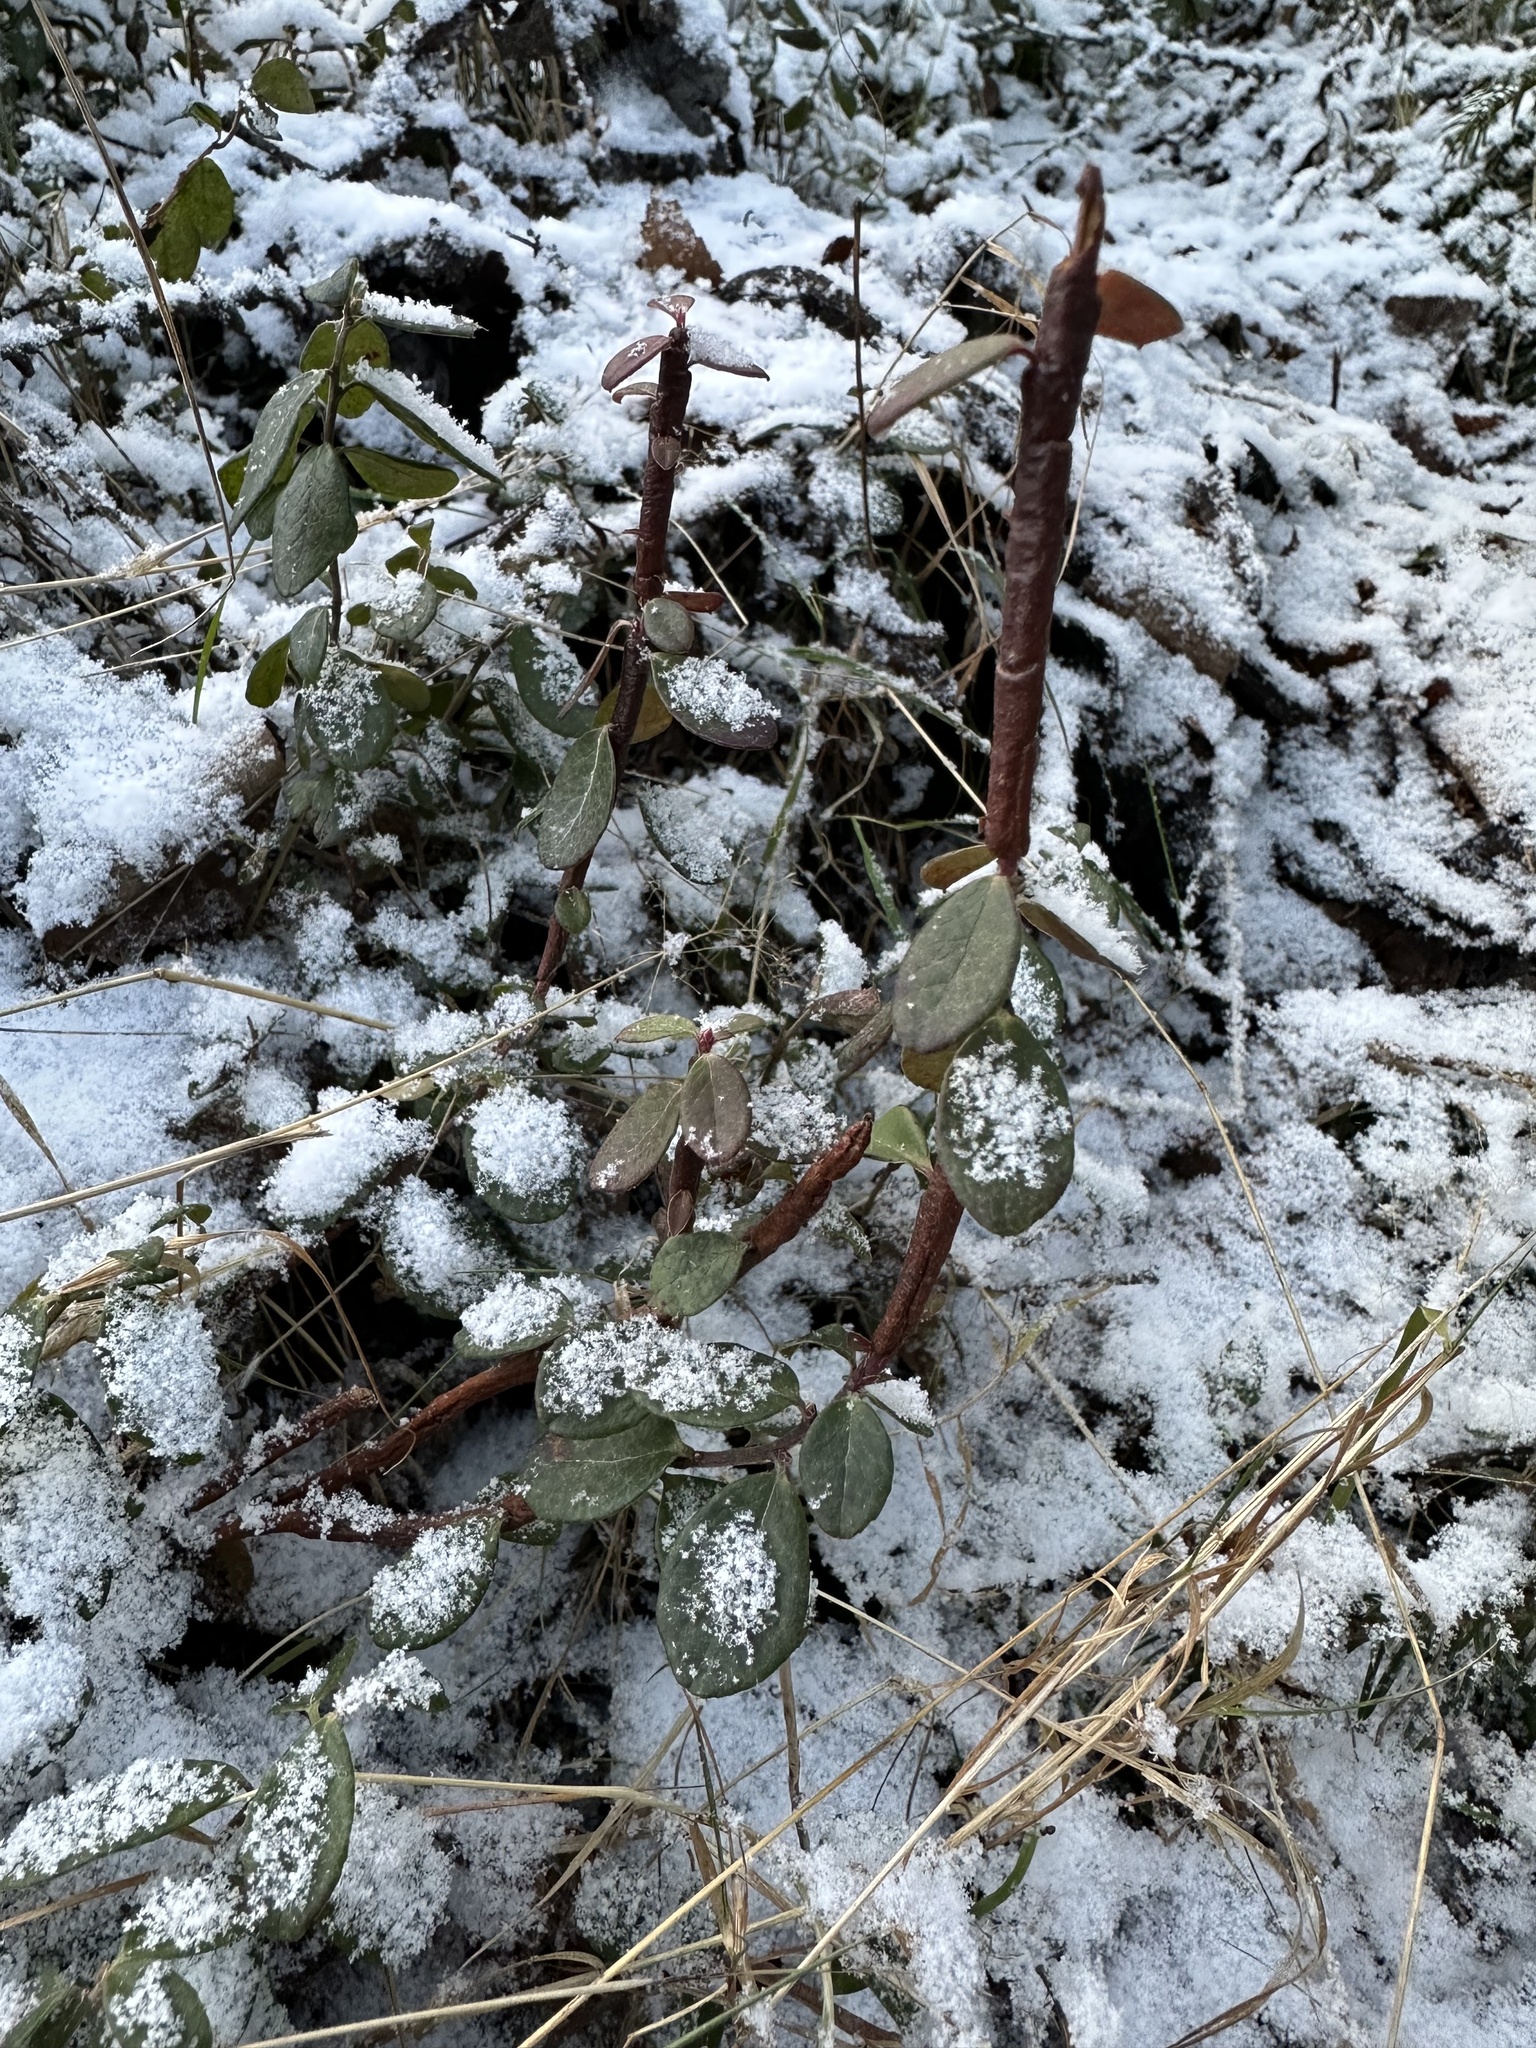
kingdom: Plantae
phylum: Tracheophyta
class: Magnoliopsida
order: Ericales
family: Ericaceae
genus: Vaccinium
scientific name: Vaccinium vitis-idaea
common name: Cowberry
